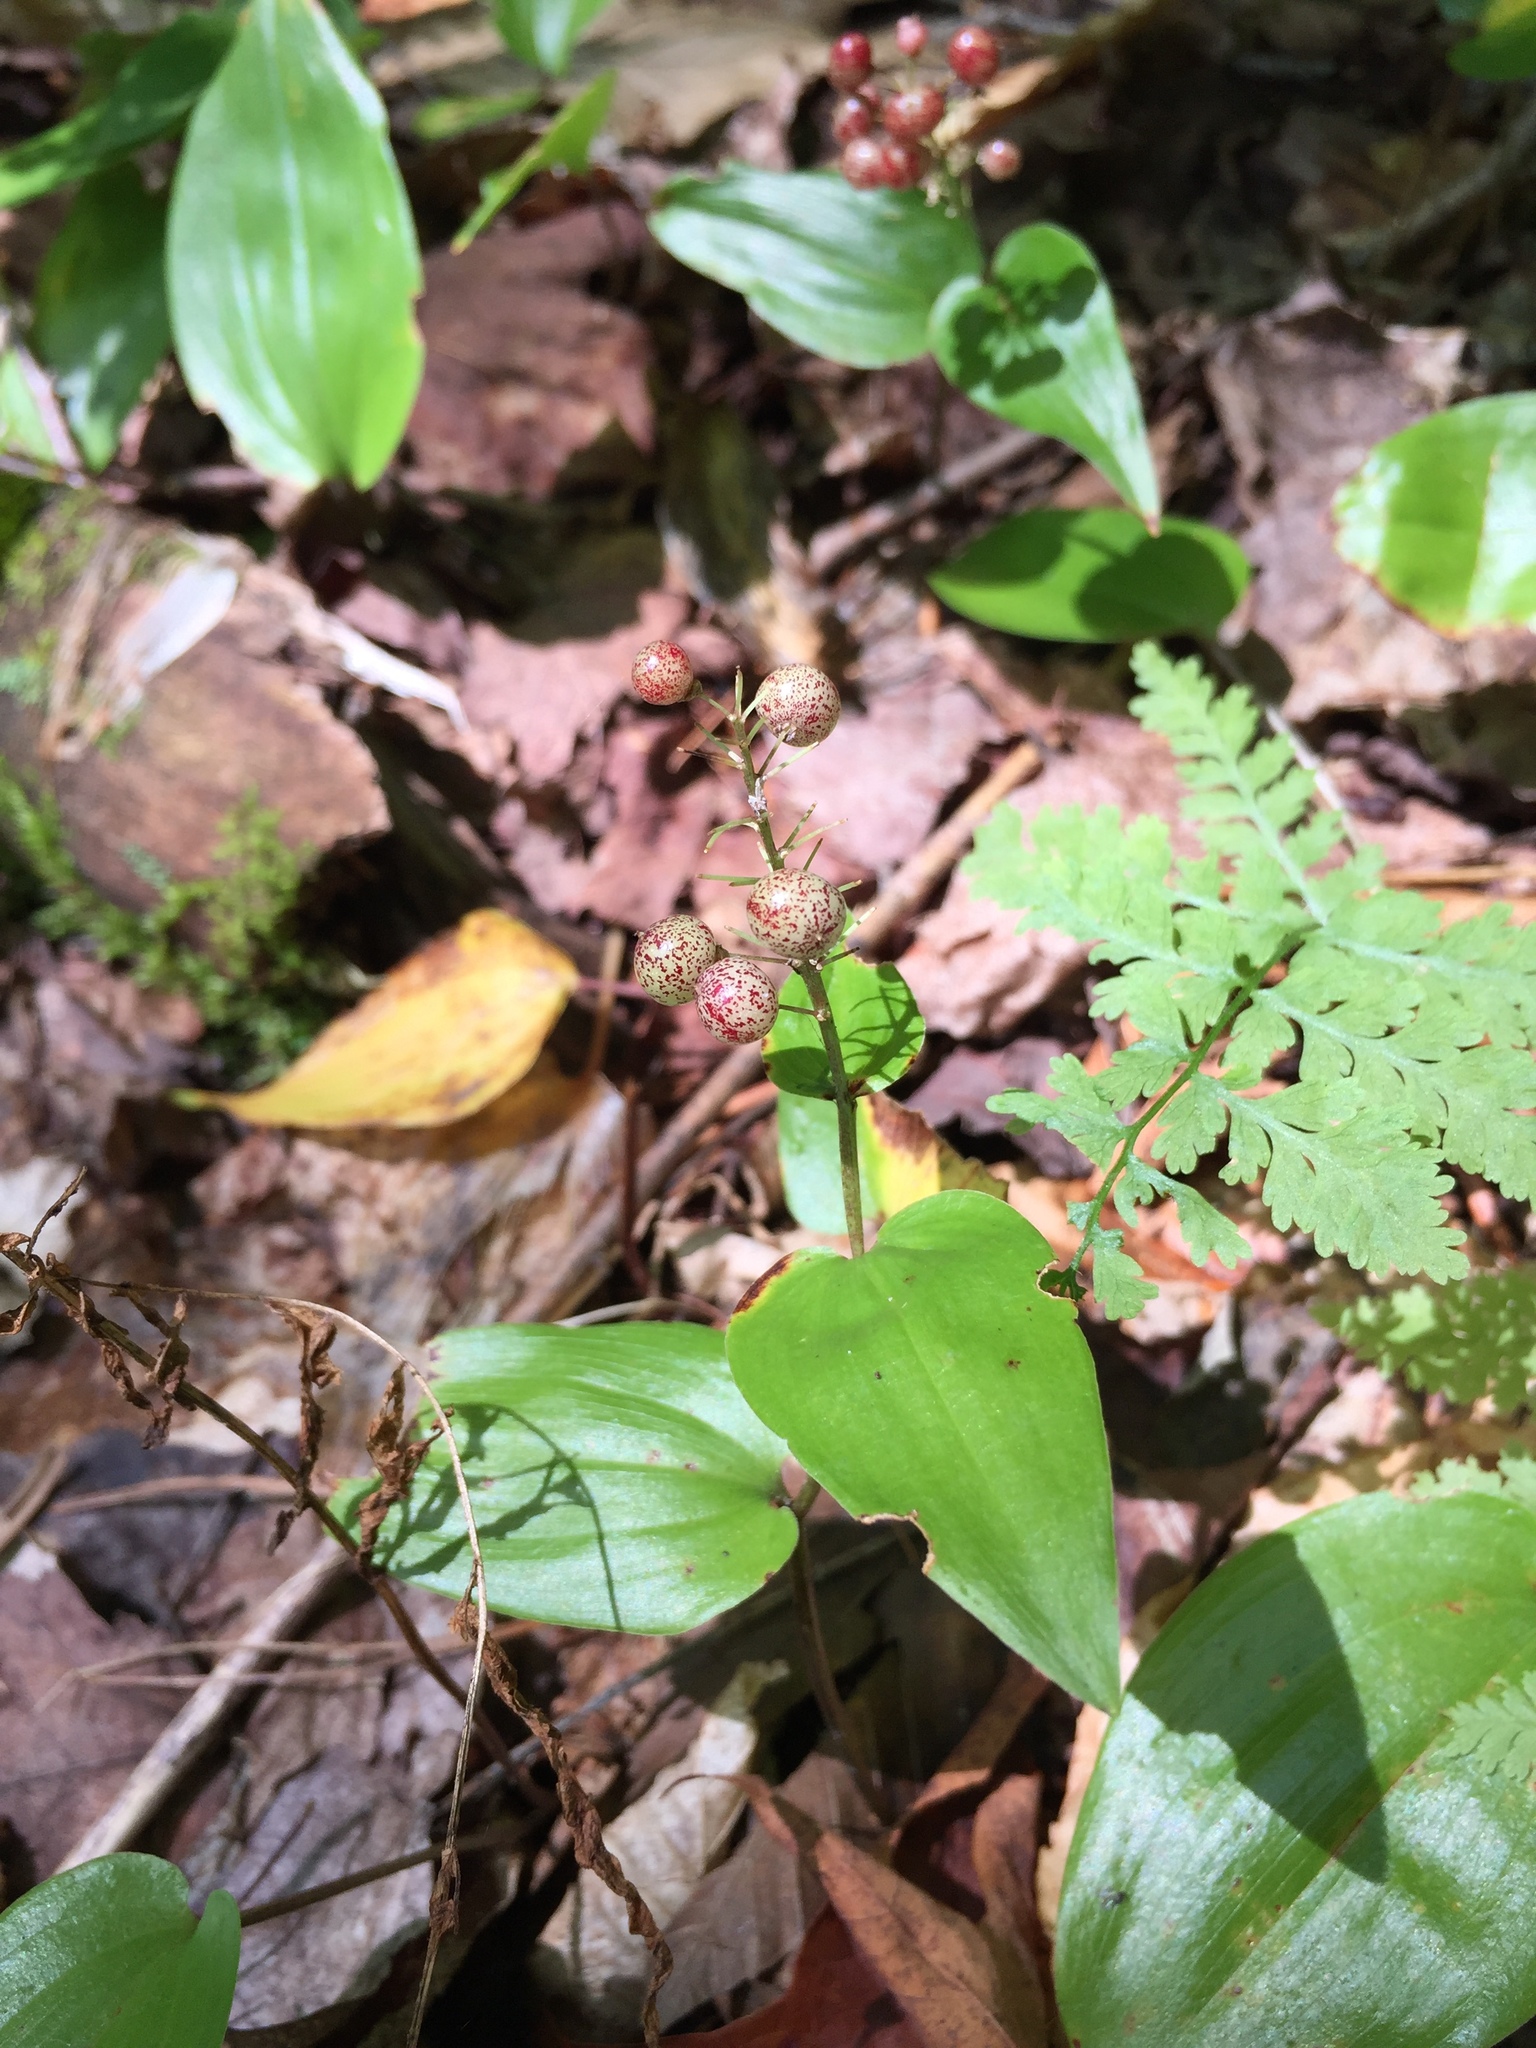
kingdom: Plantae
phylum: Tracheophyta
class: Liliopsida
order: Asparagales
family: Asparagaceae
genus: Maianthemum
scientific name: Maianthemum canadense
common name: False lily-of-the-valley
